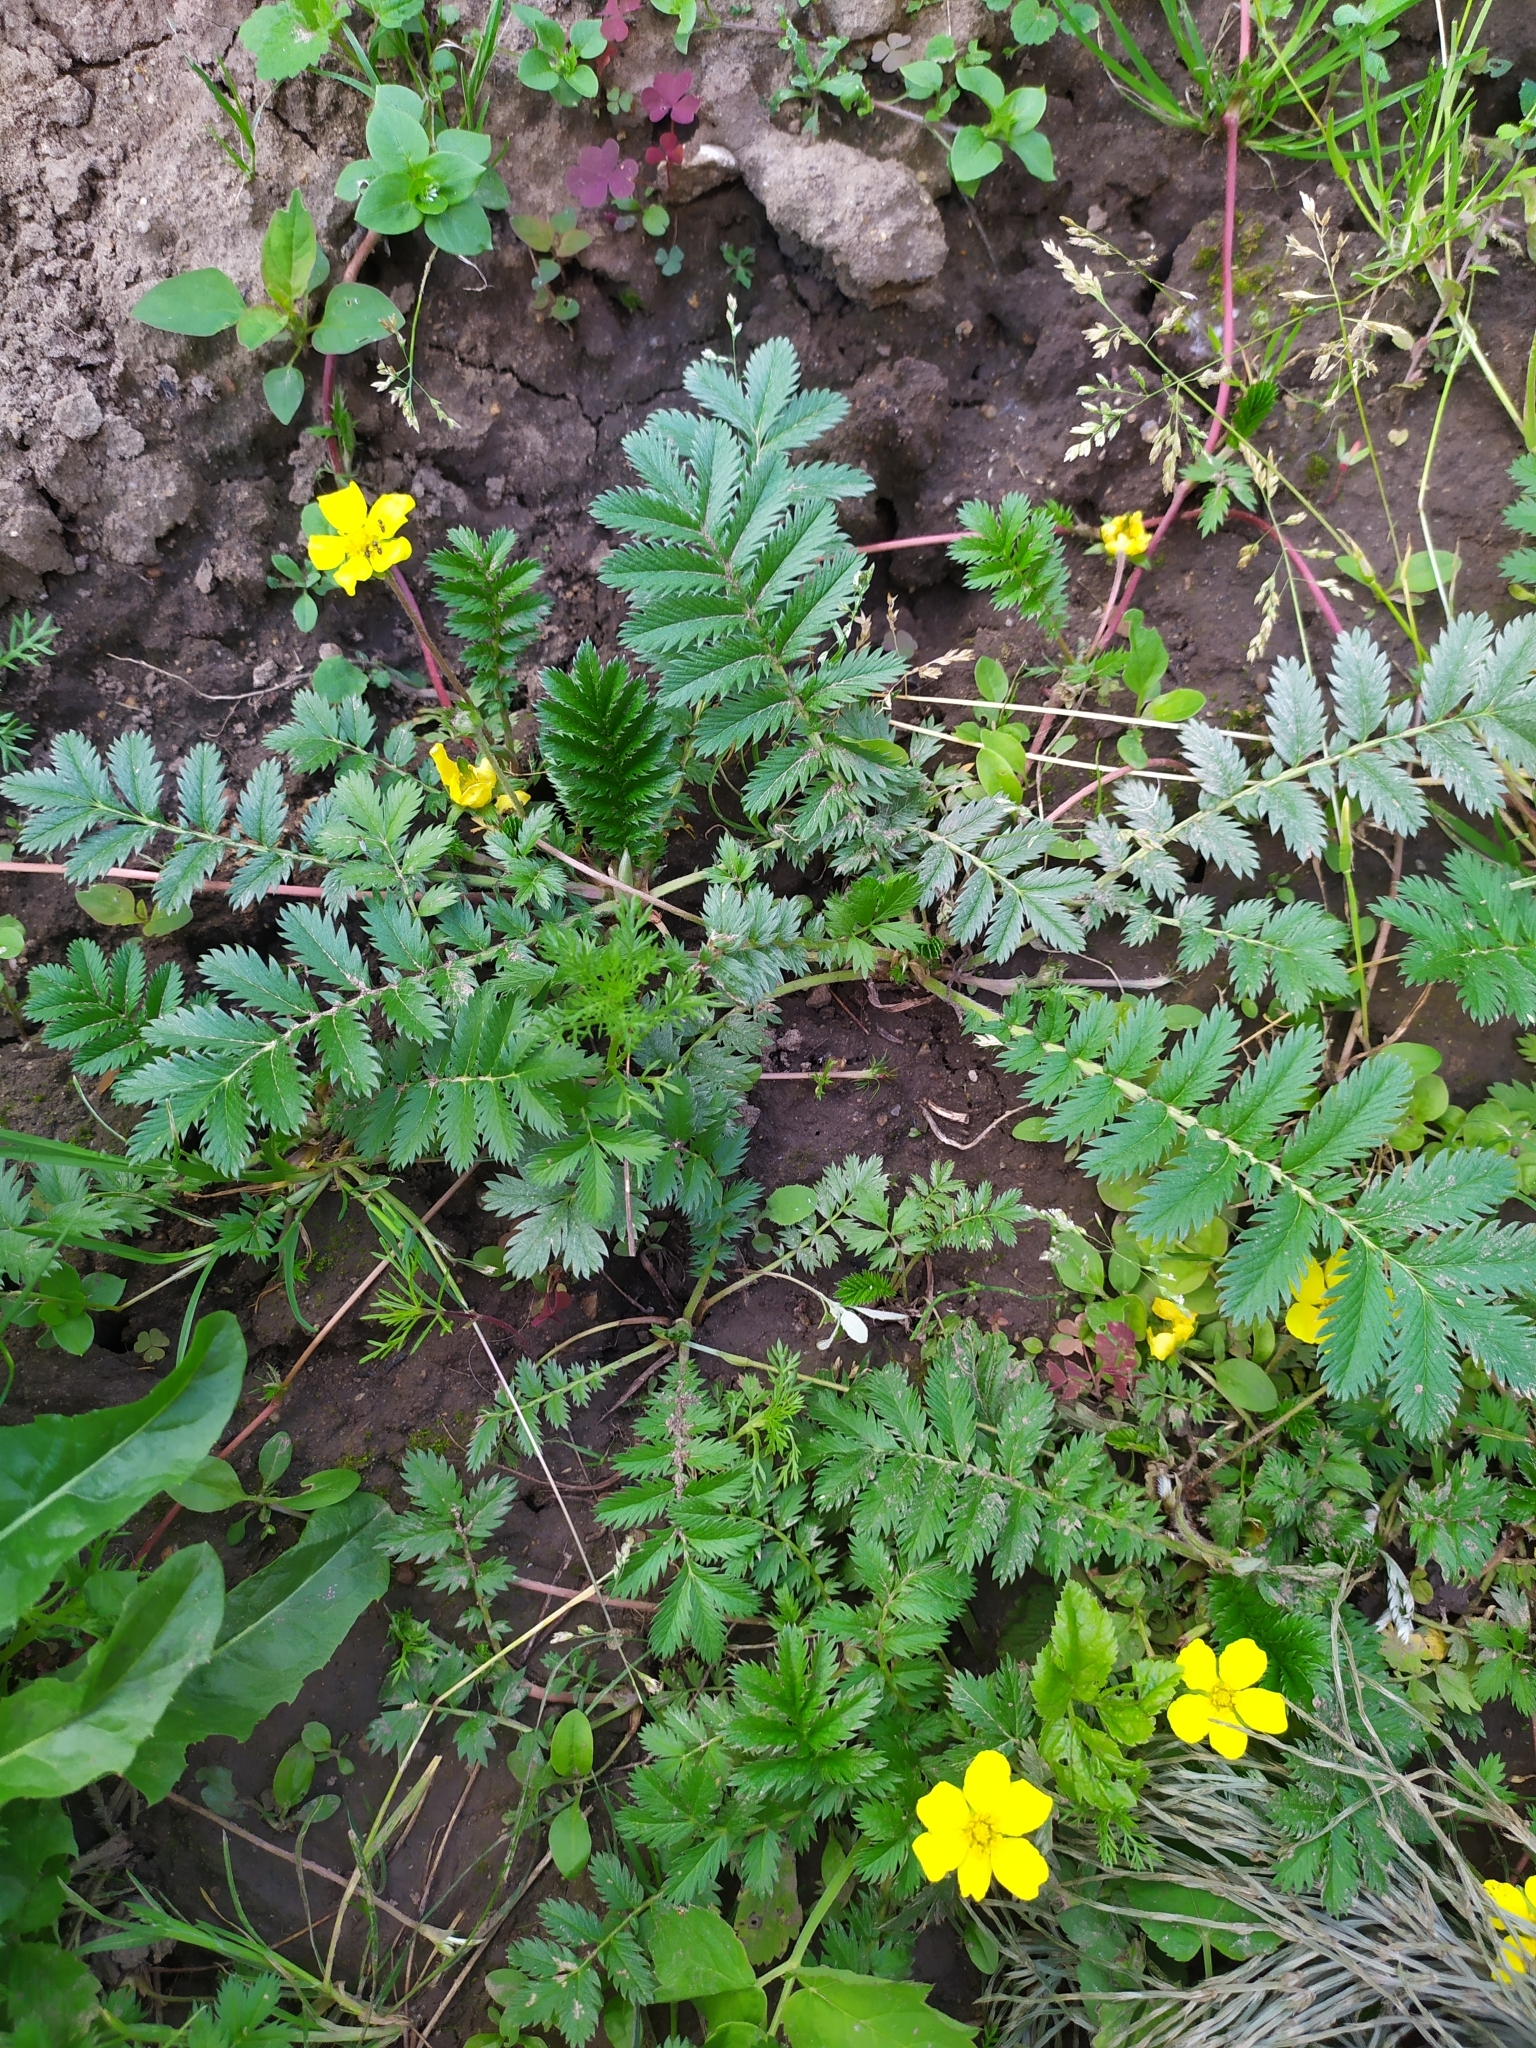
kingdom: Plantae
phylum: Tracheophyta
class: Magnoliopsida
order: Rosales
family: Rosaceae
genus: Argentina
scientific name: Argentina anserina
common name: Common silverweed
